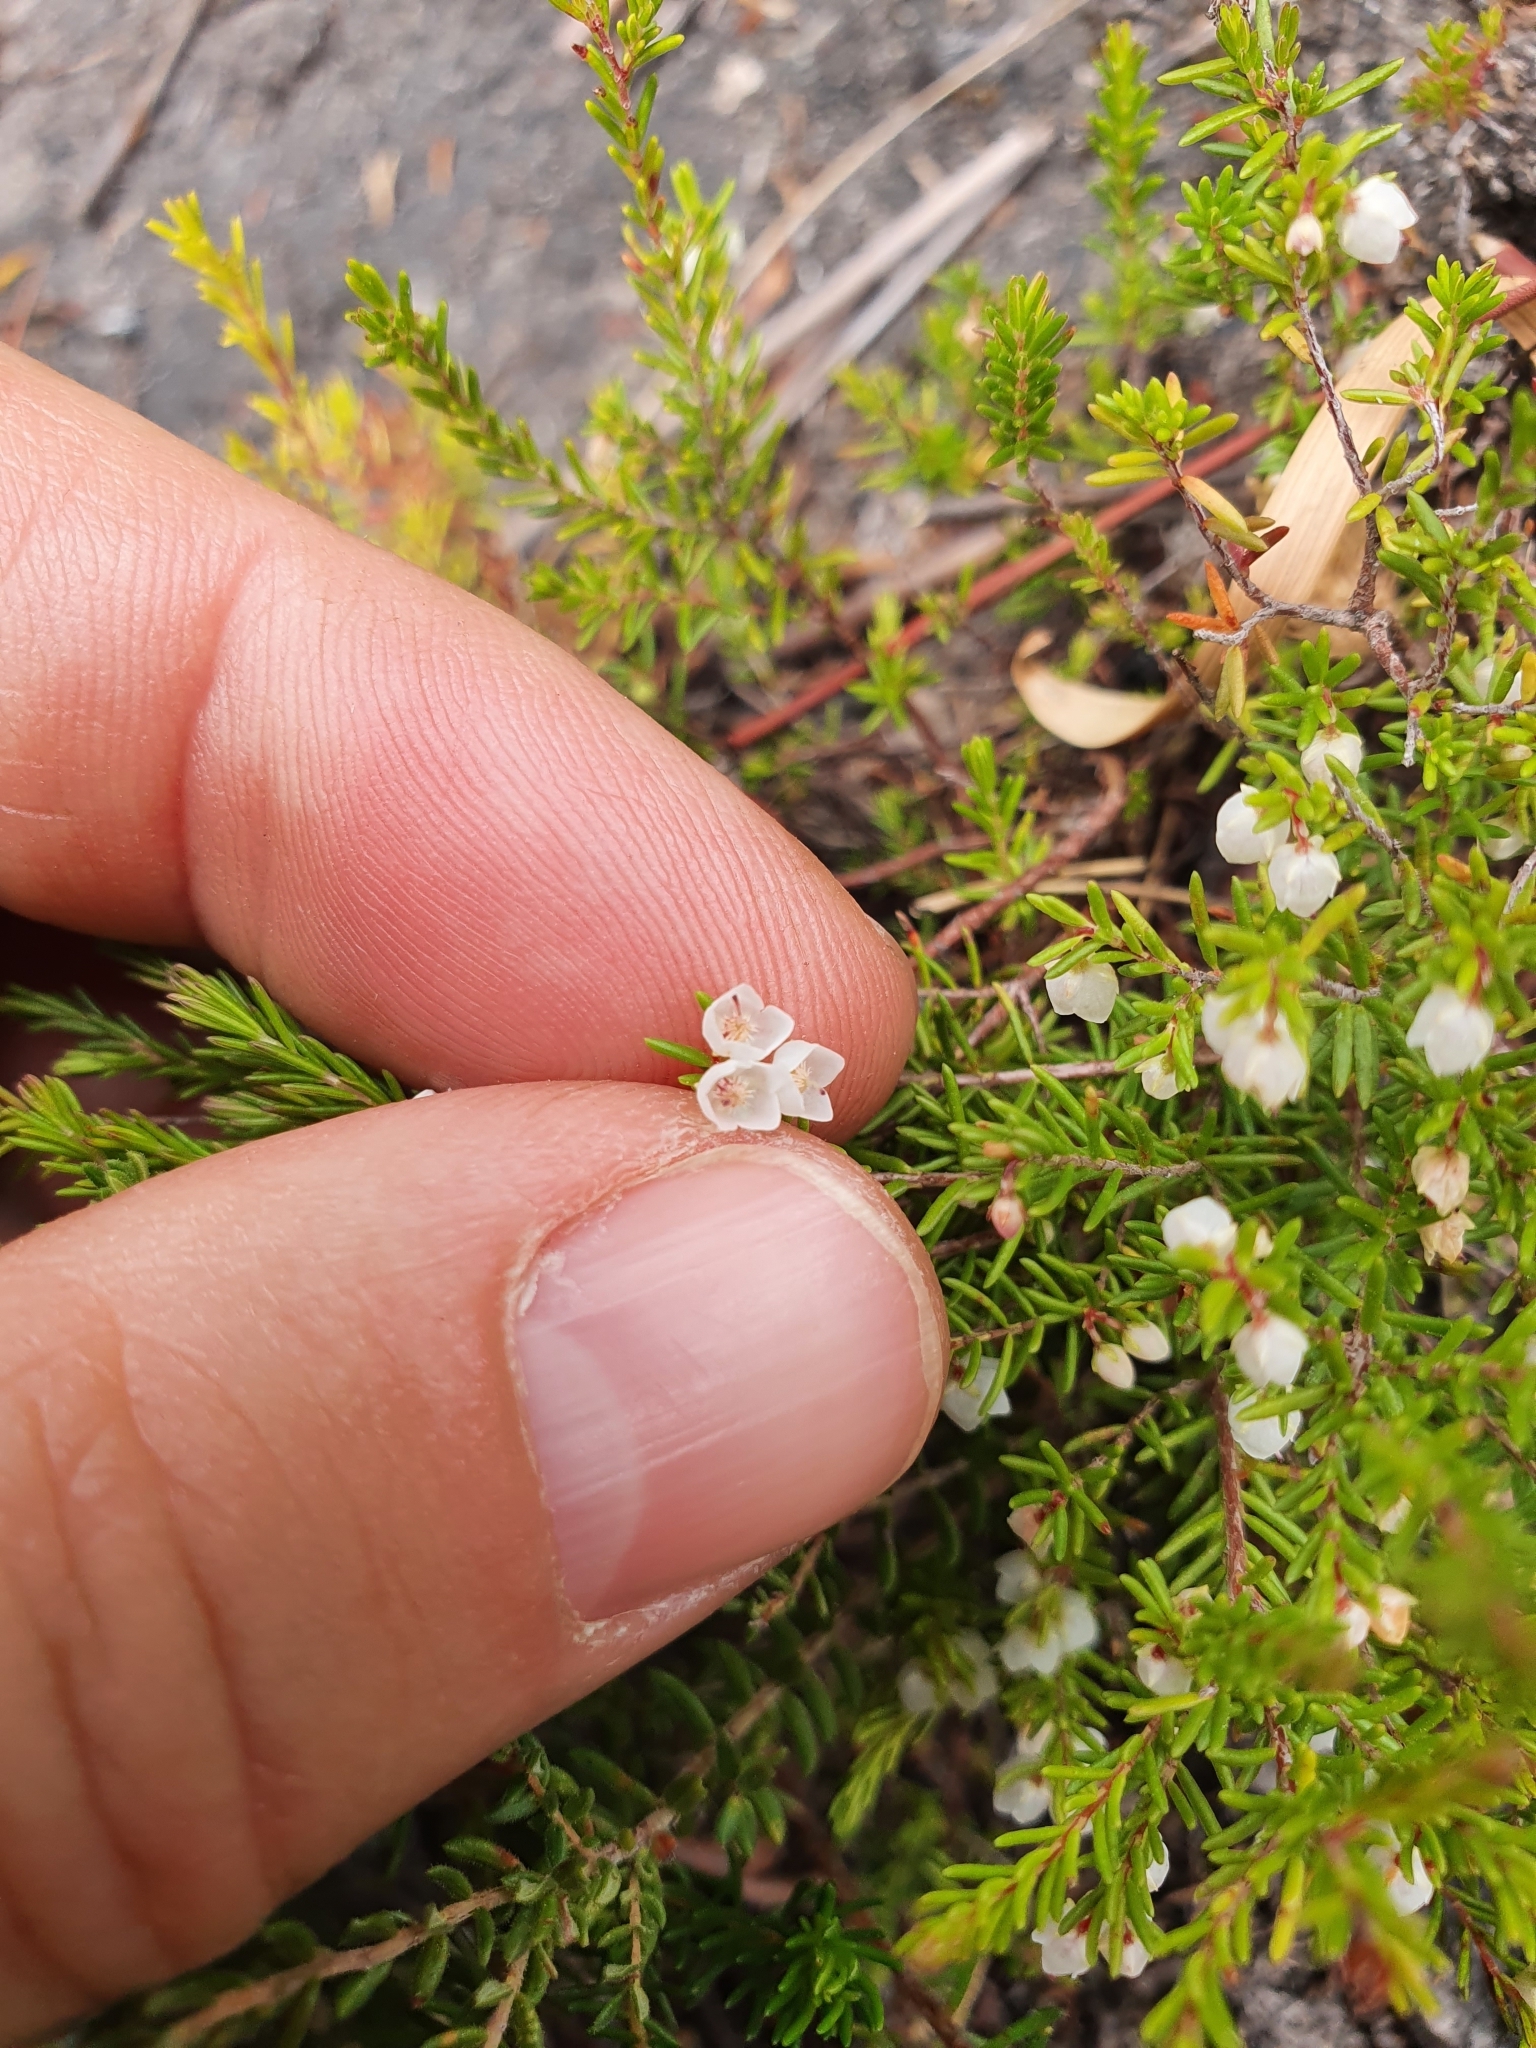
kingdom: Plantae
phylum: Tracheophyta
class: Magnoliopsida
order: Ericales
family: Ericaceae
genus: Erica
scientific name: Erica tenuis
